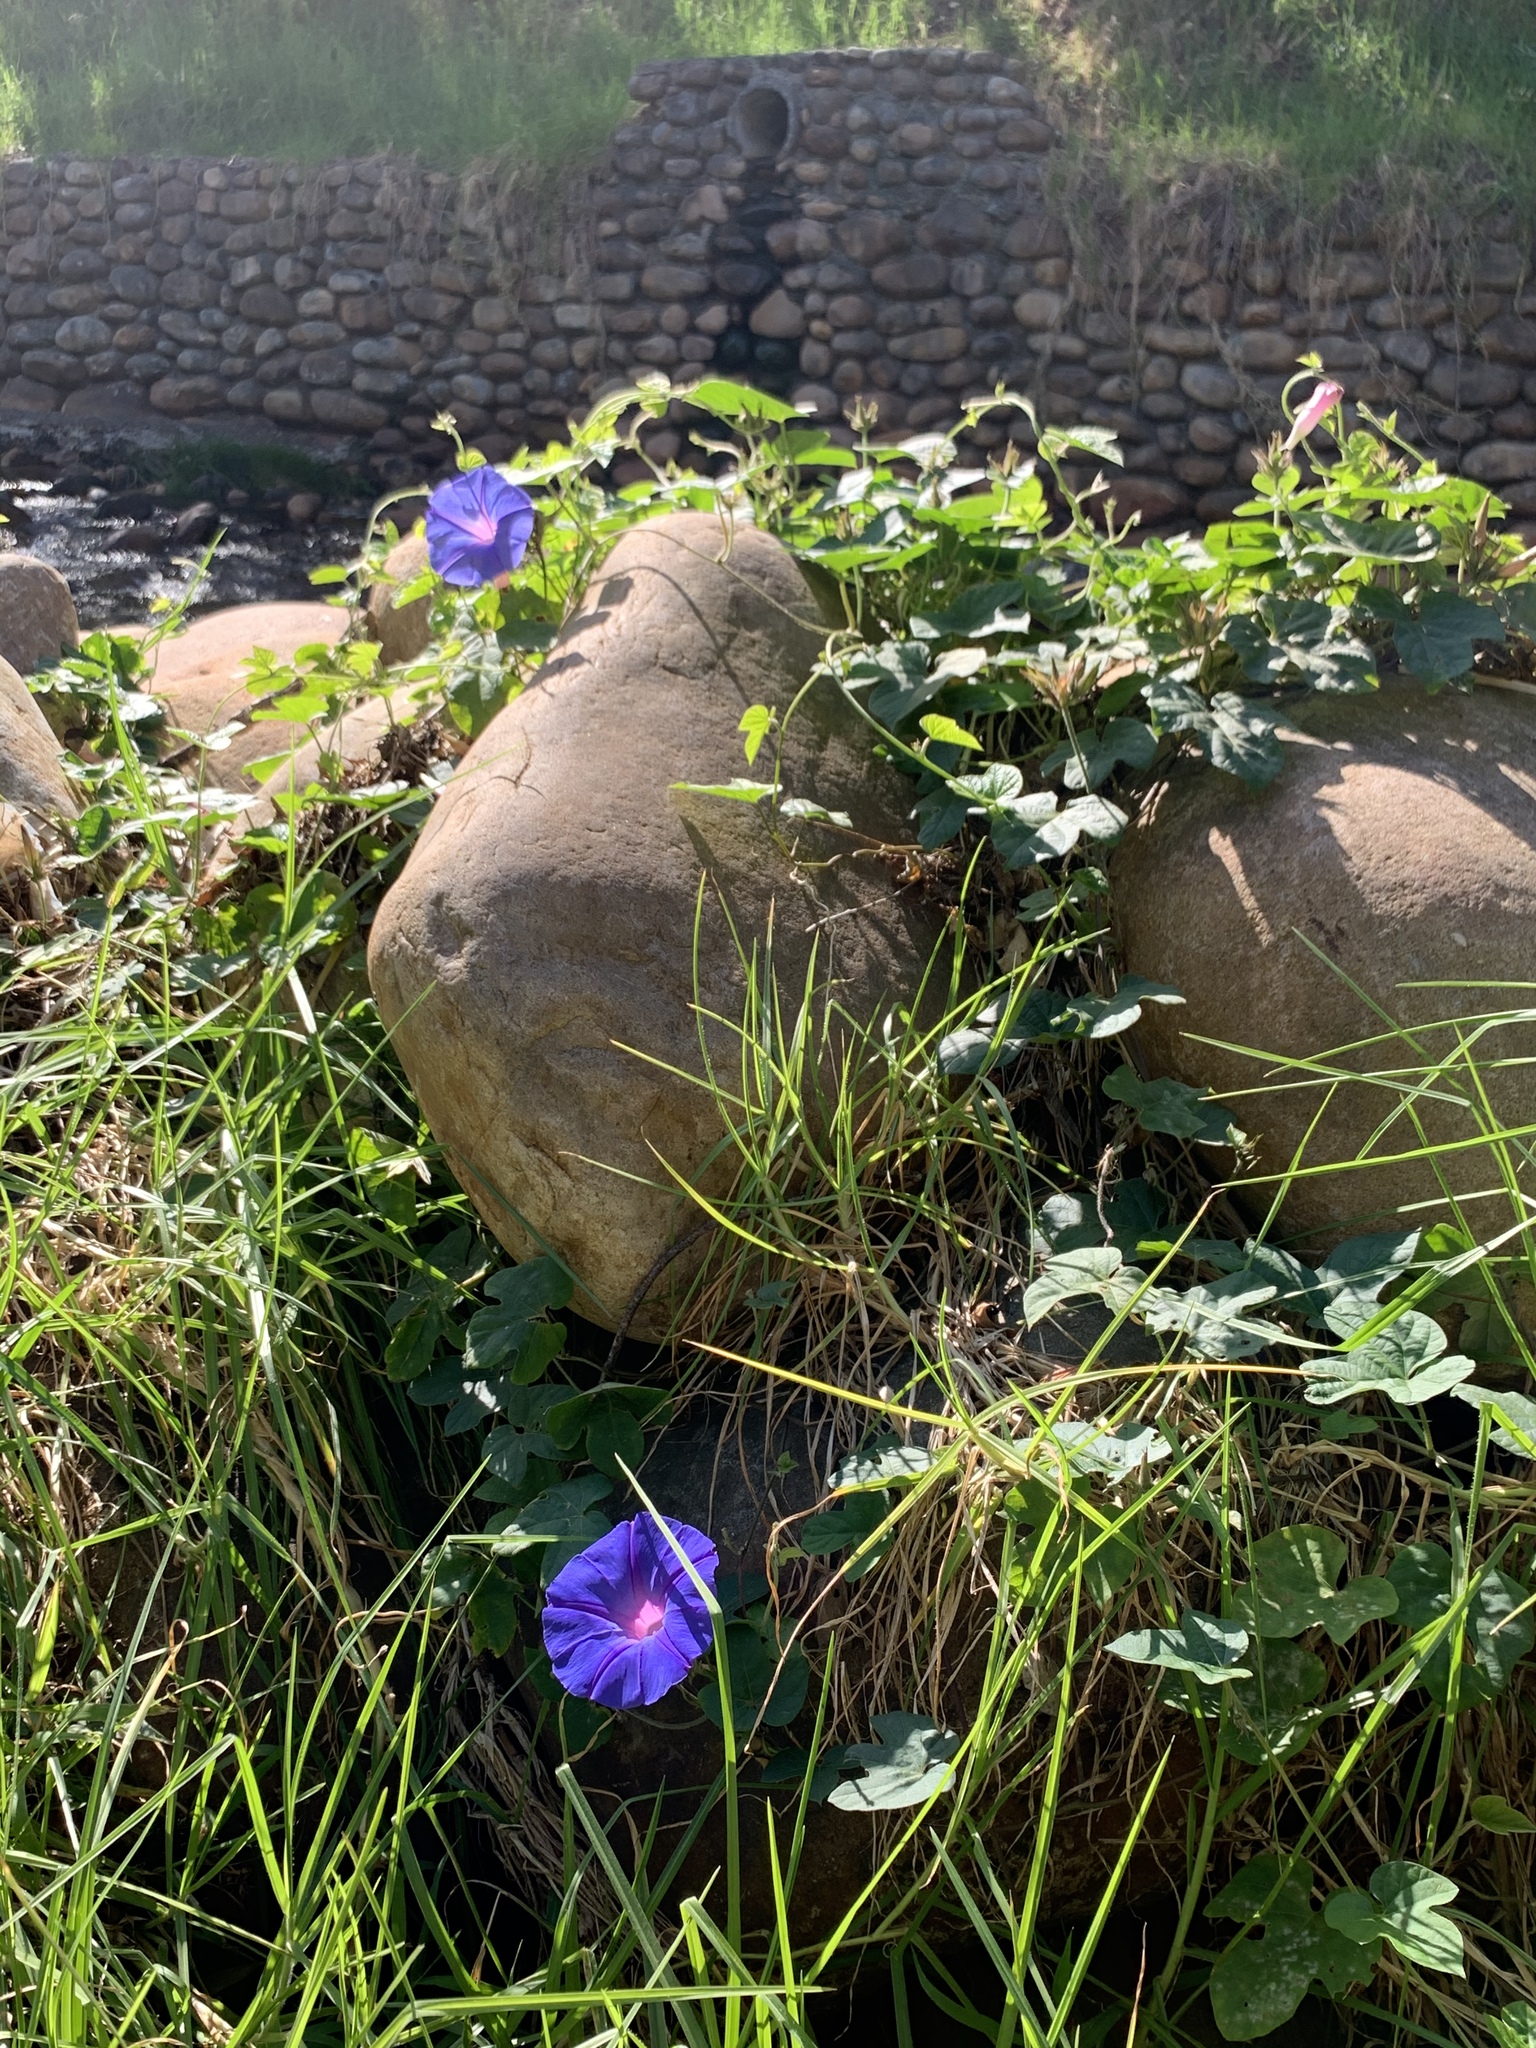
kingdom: Plantae
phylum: Tracheophyta
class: Magnoliopsida
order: Solanales
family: Convolvulaceae
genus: Ipomoea
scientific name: Ipomoea indica
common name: Blue dawnflower
